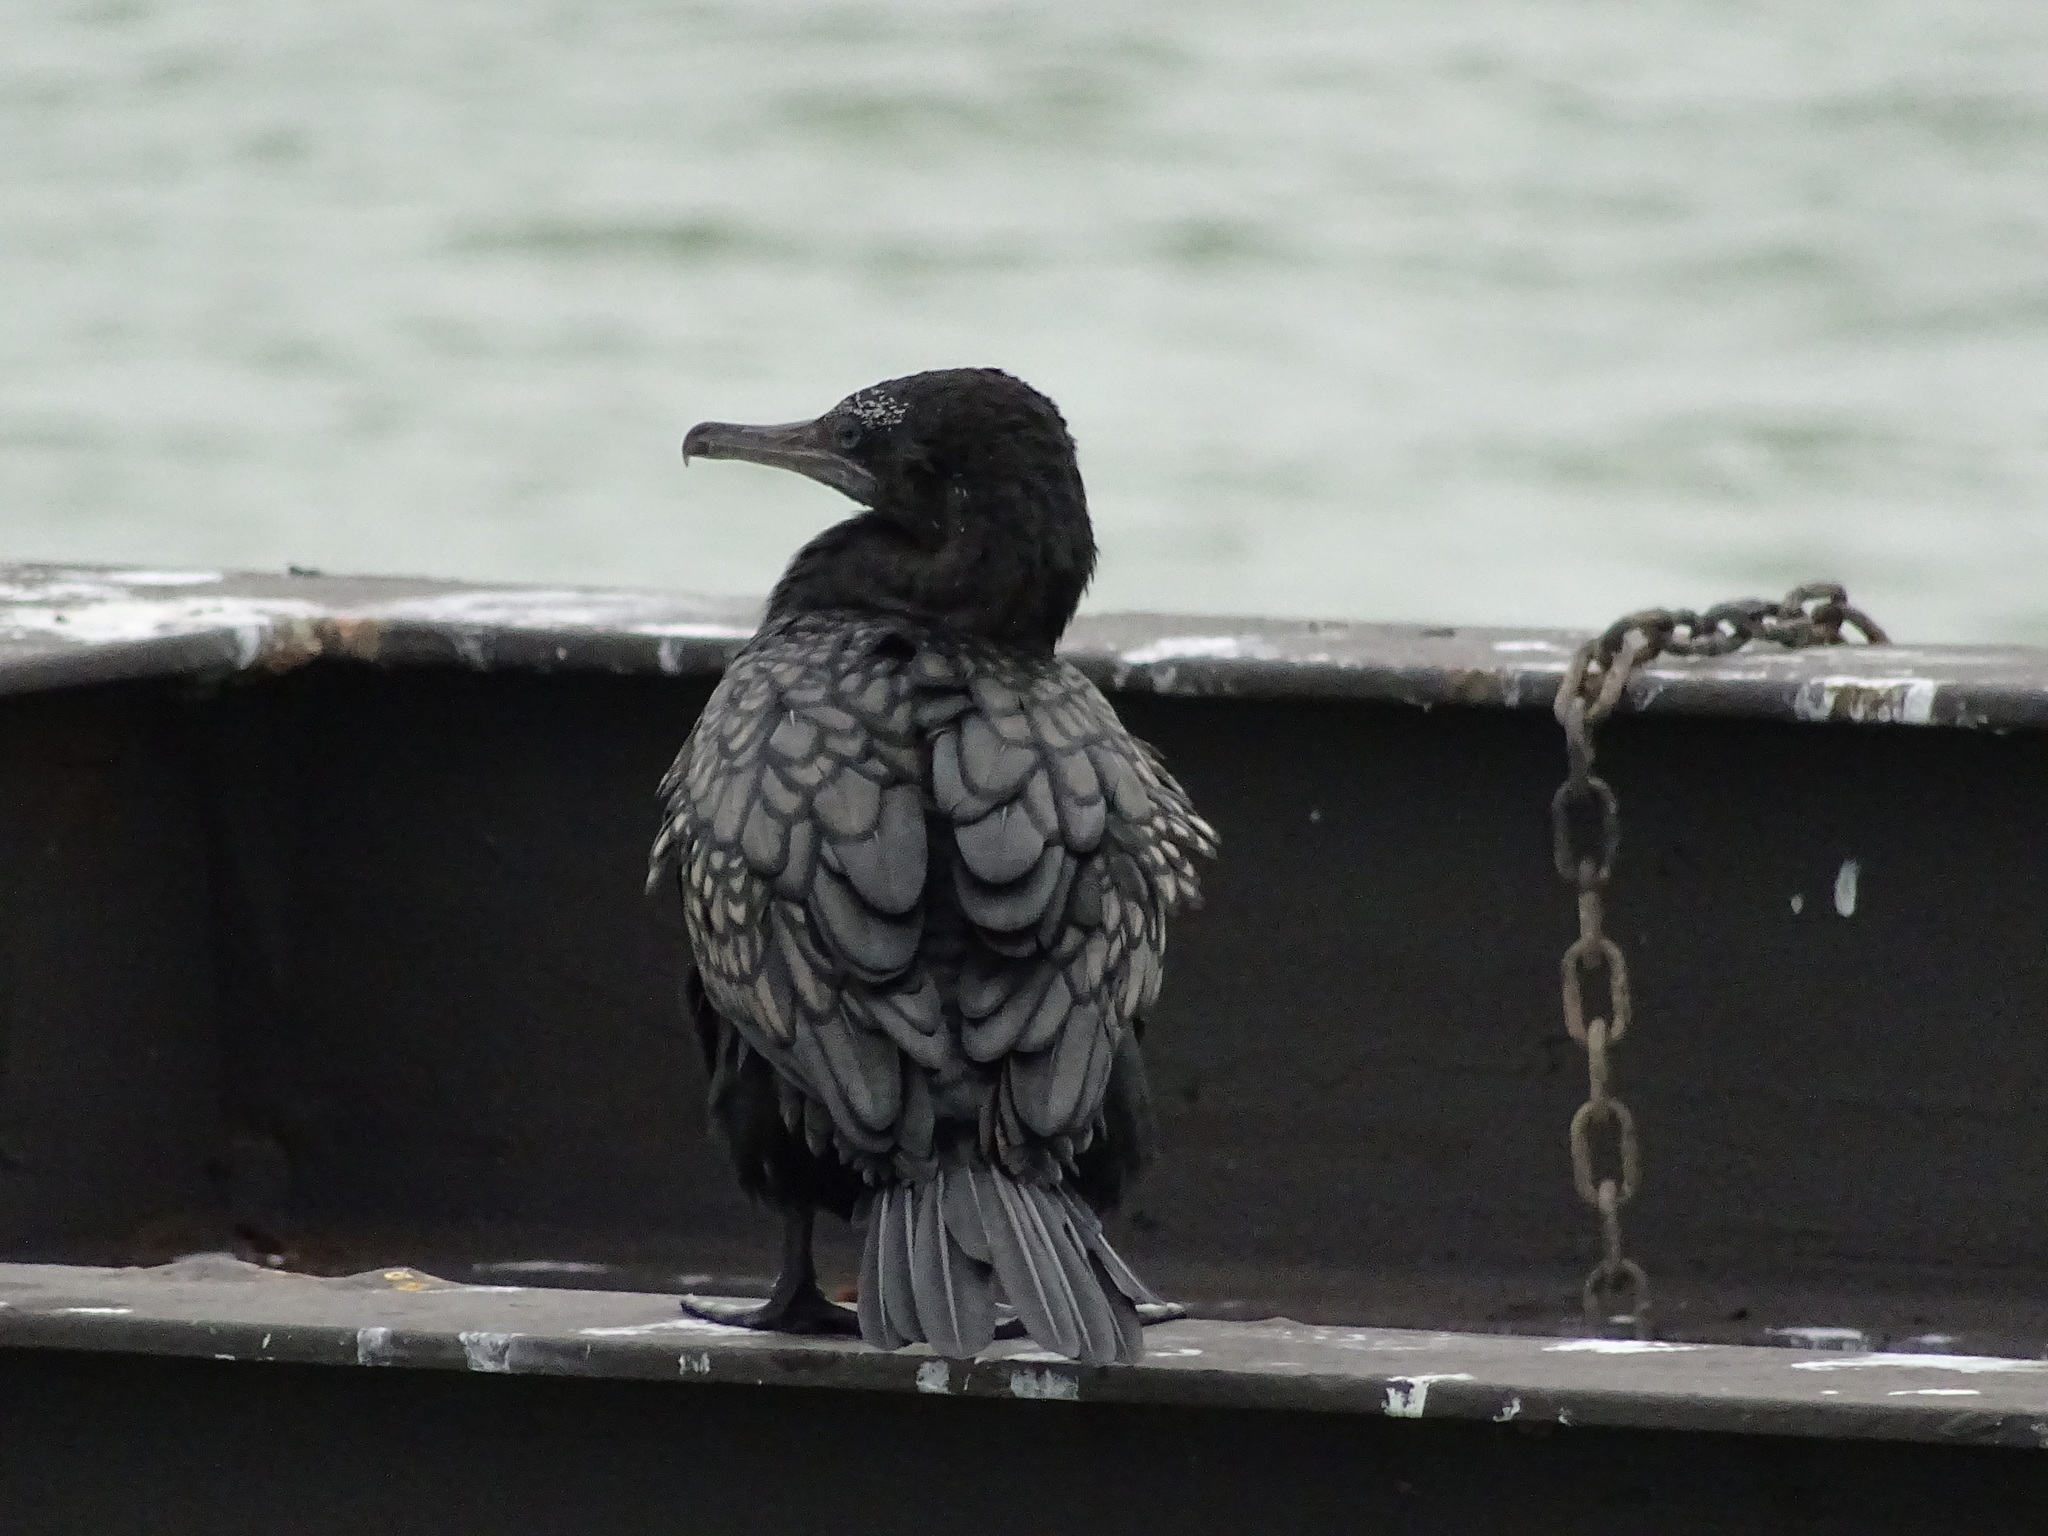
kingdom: Animalia
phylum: Chordata
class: Aves
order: Suliformes
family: Phalacrocoracidae
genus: Phalacrocorax
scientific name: Phalacrocorax sulcirostris
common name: Little black cormorant
